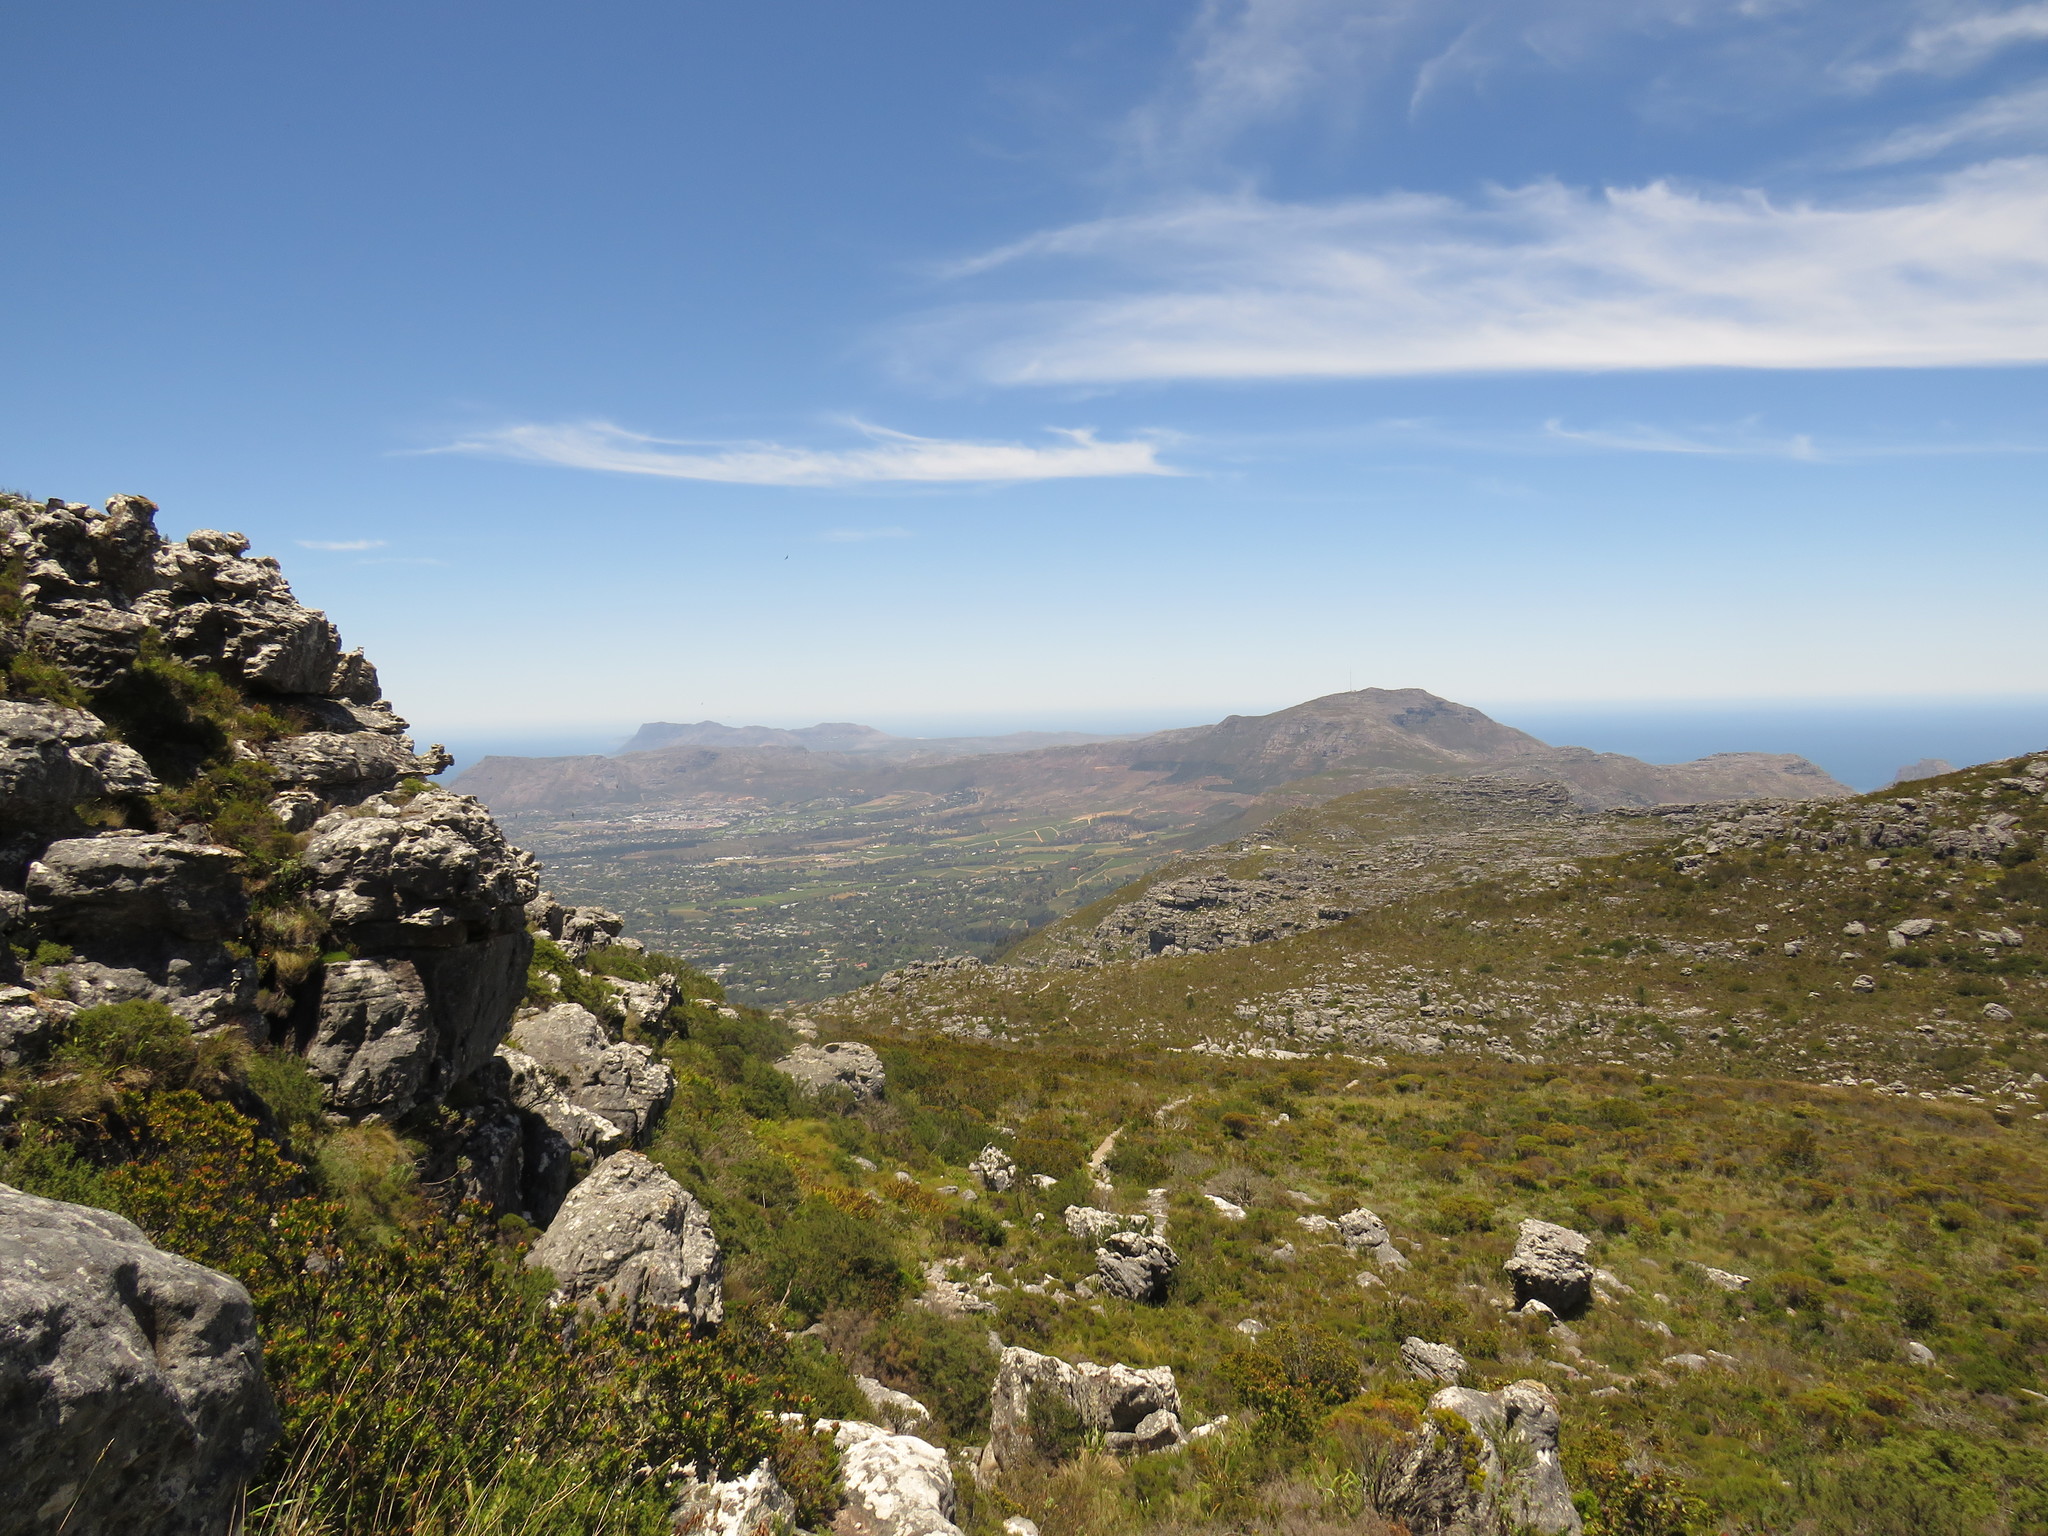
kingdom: Plantae
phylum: Tracheophyta
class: Magnoliopsida
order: Proteales
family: Proteaceae
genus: Leucadendron
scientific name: Leucadendron strobilinum
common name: Mountain rose
